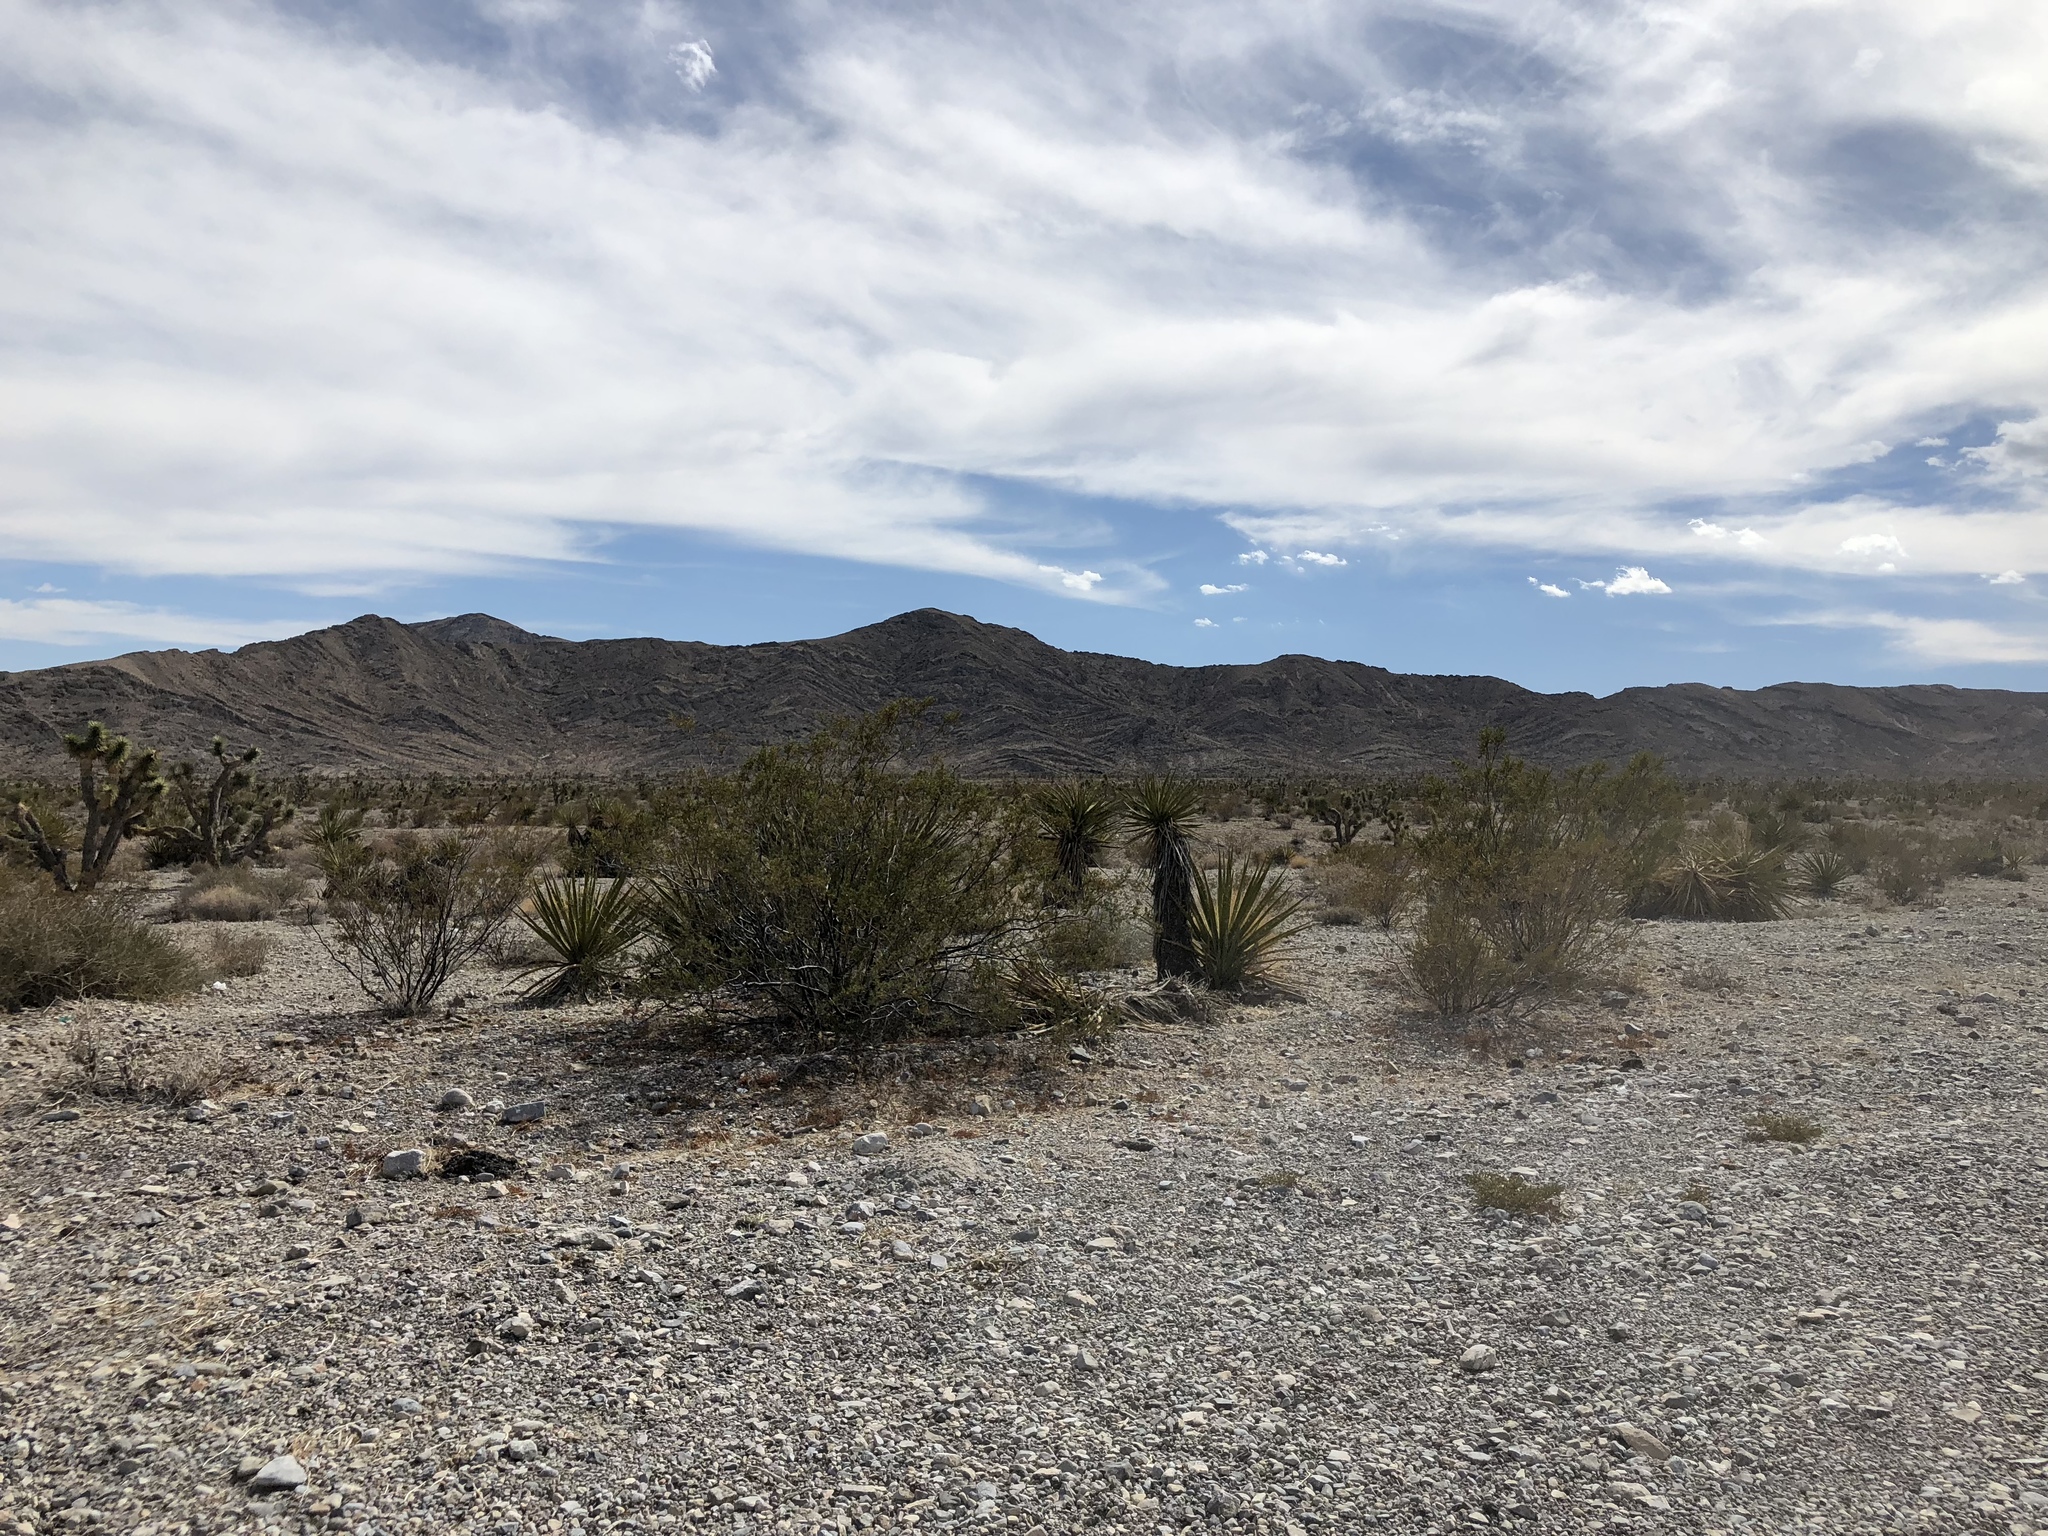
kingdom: Plantae
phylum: Tracheophyta
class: Magnoliopsida
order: Zygophyllales
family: Zygophyllaceae
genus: Larrea
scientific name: Larrea tridentata
